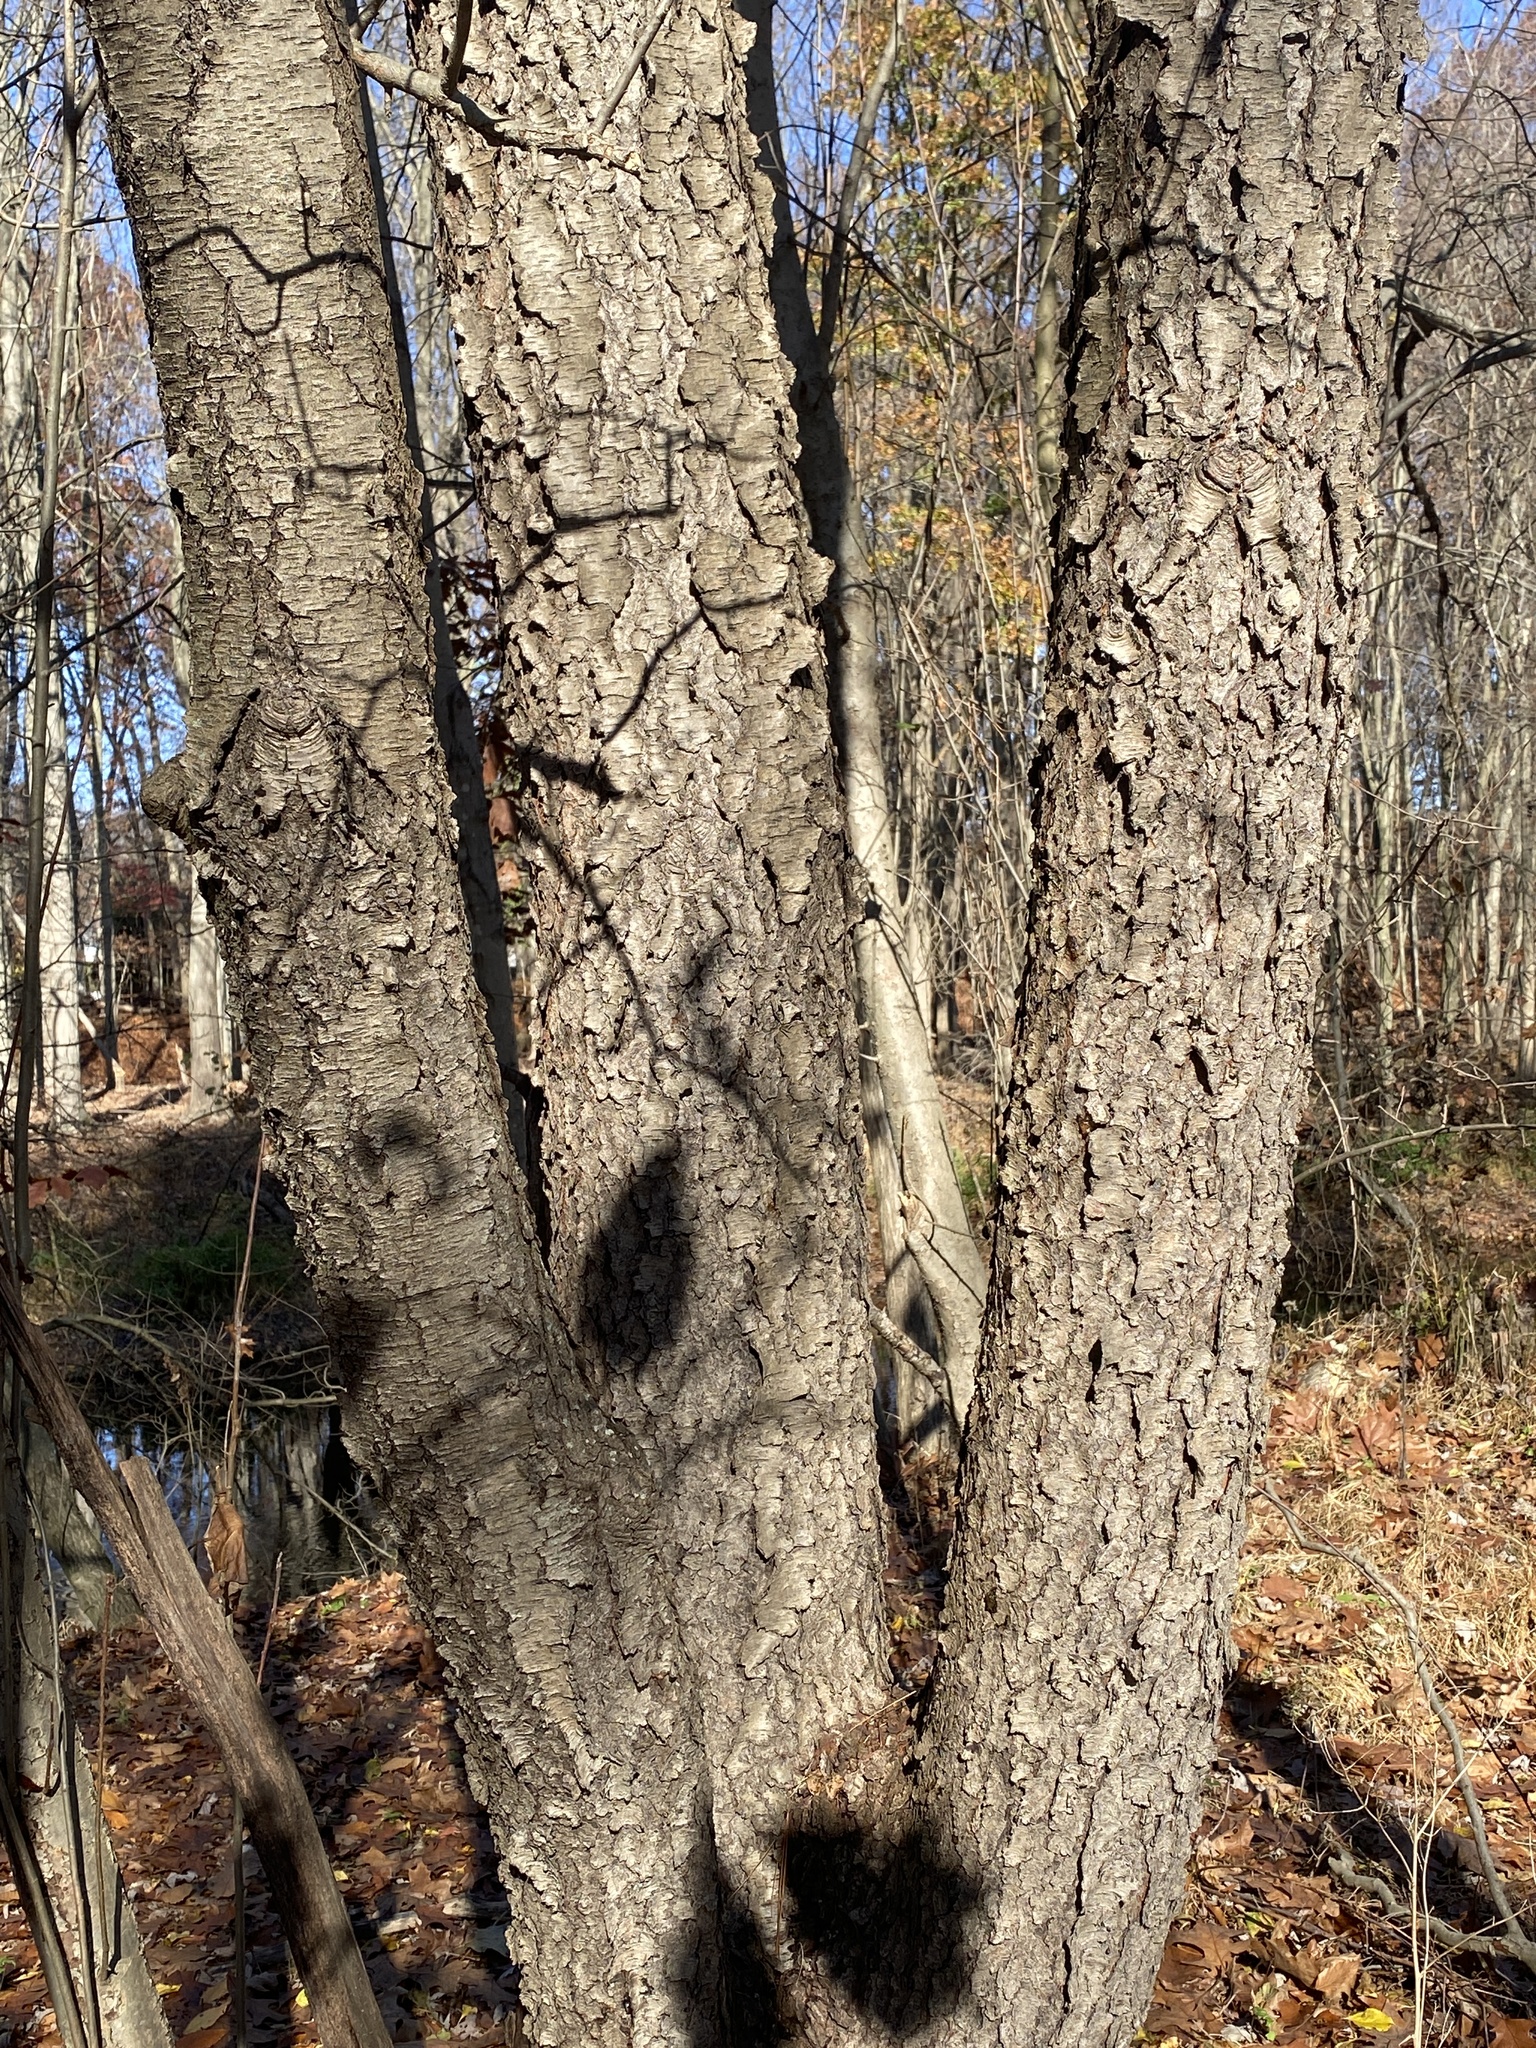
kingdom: Plantae
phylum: Tracheophyta
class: Magnoliopsida
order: Rosales
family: Rosaceae
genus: Prunus
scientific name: Prunus serotina
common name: Black cherry
